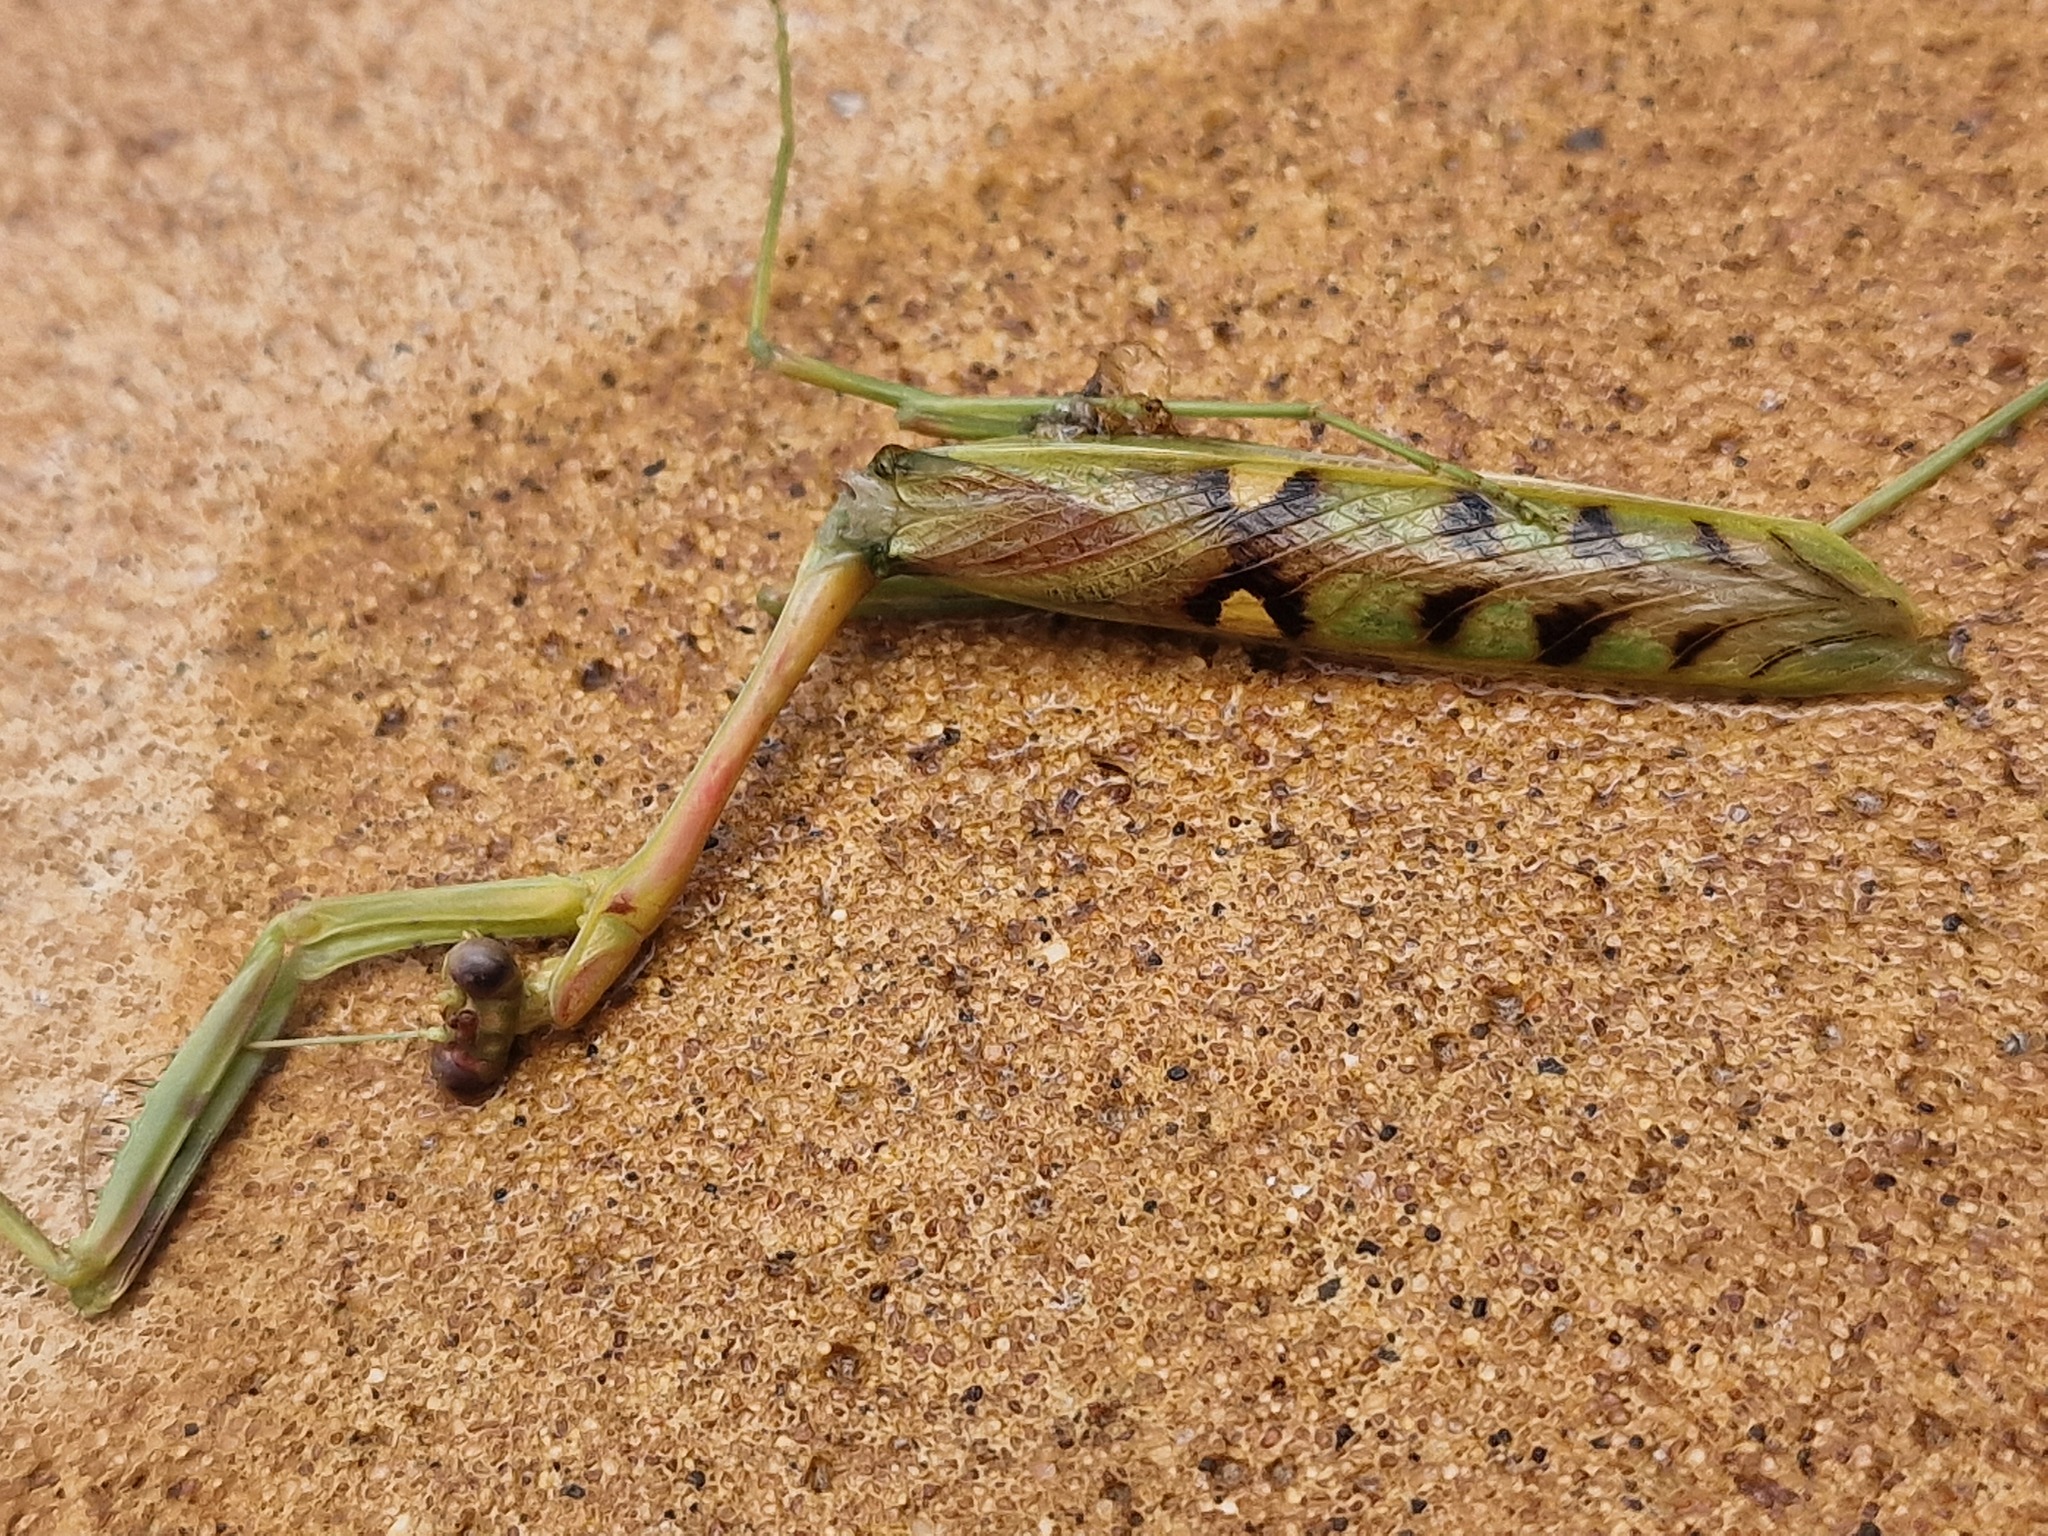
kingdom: Animalia
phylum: Arthropoda
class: Insecta
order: Mantodea
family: Mantidae
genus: Omomantis
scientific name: Omomantis zebrata
